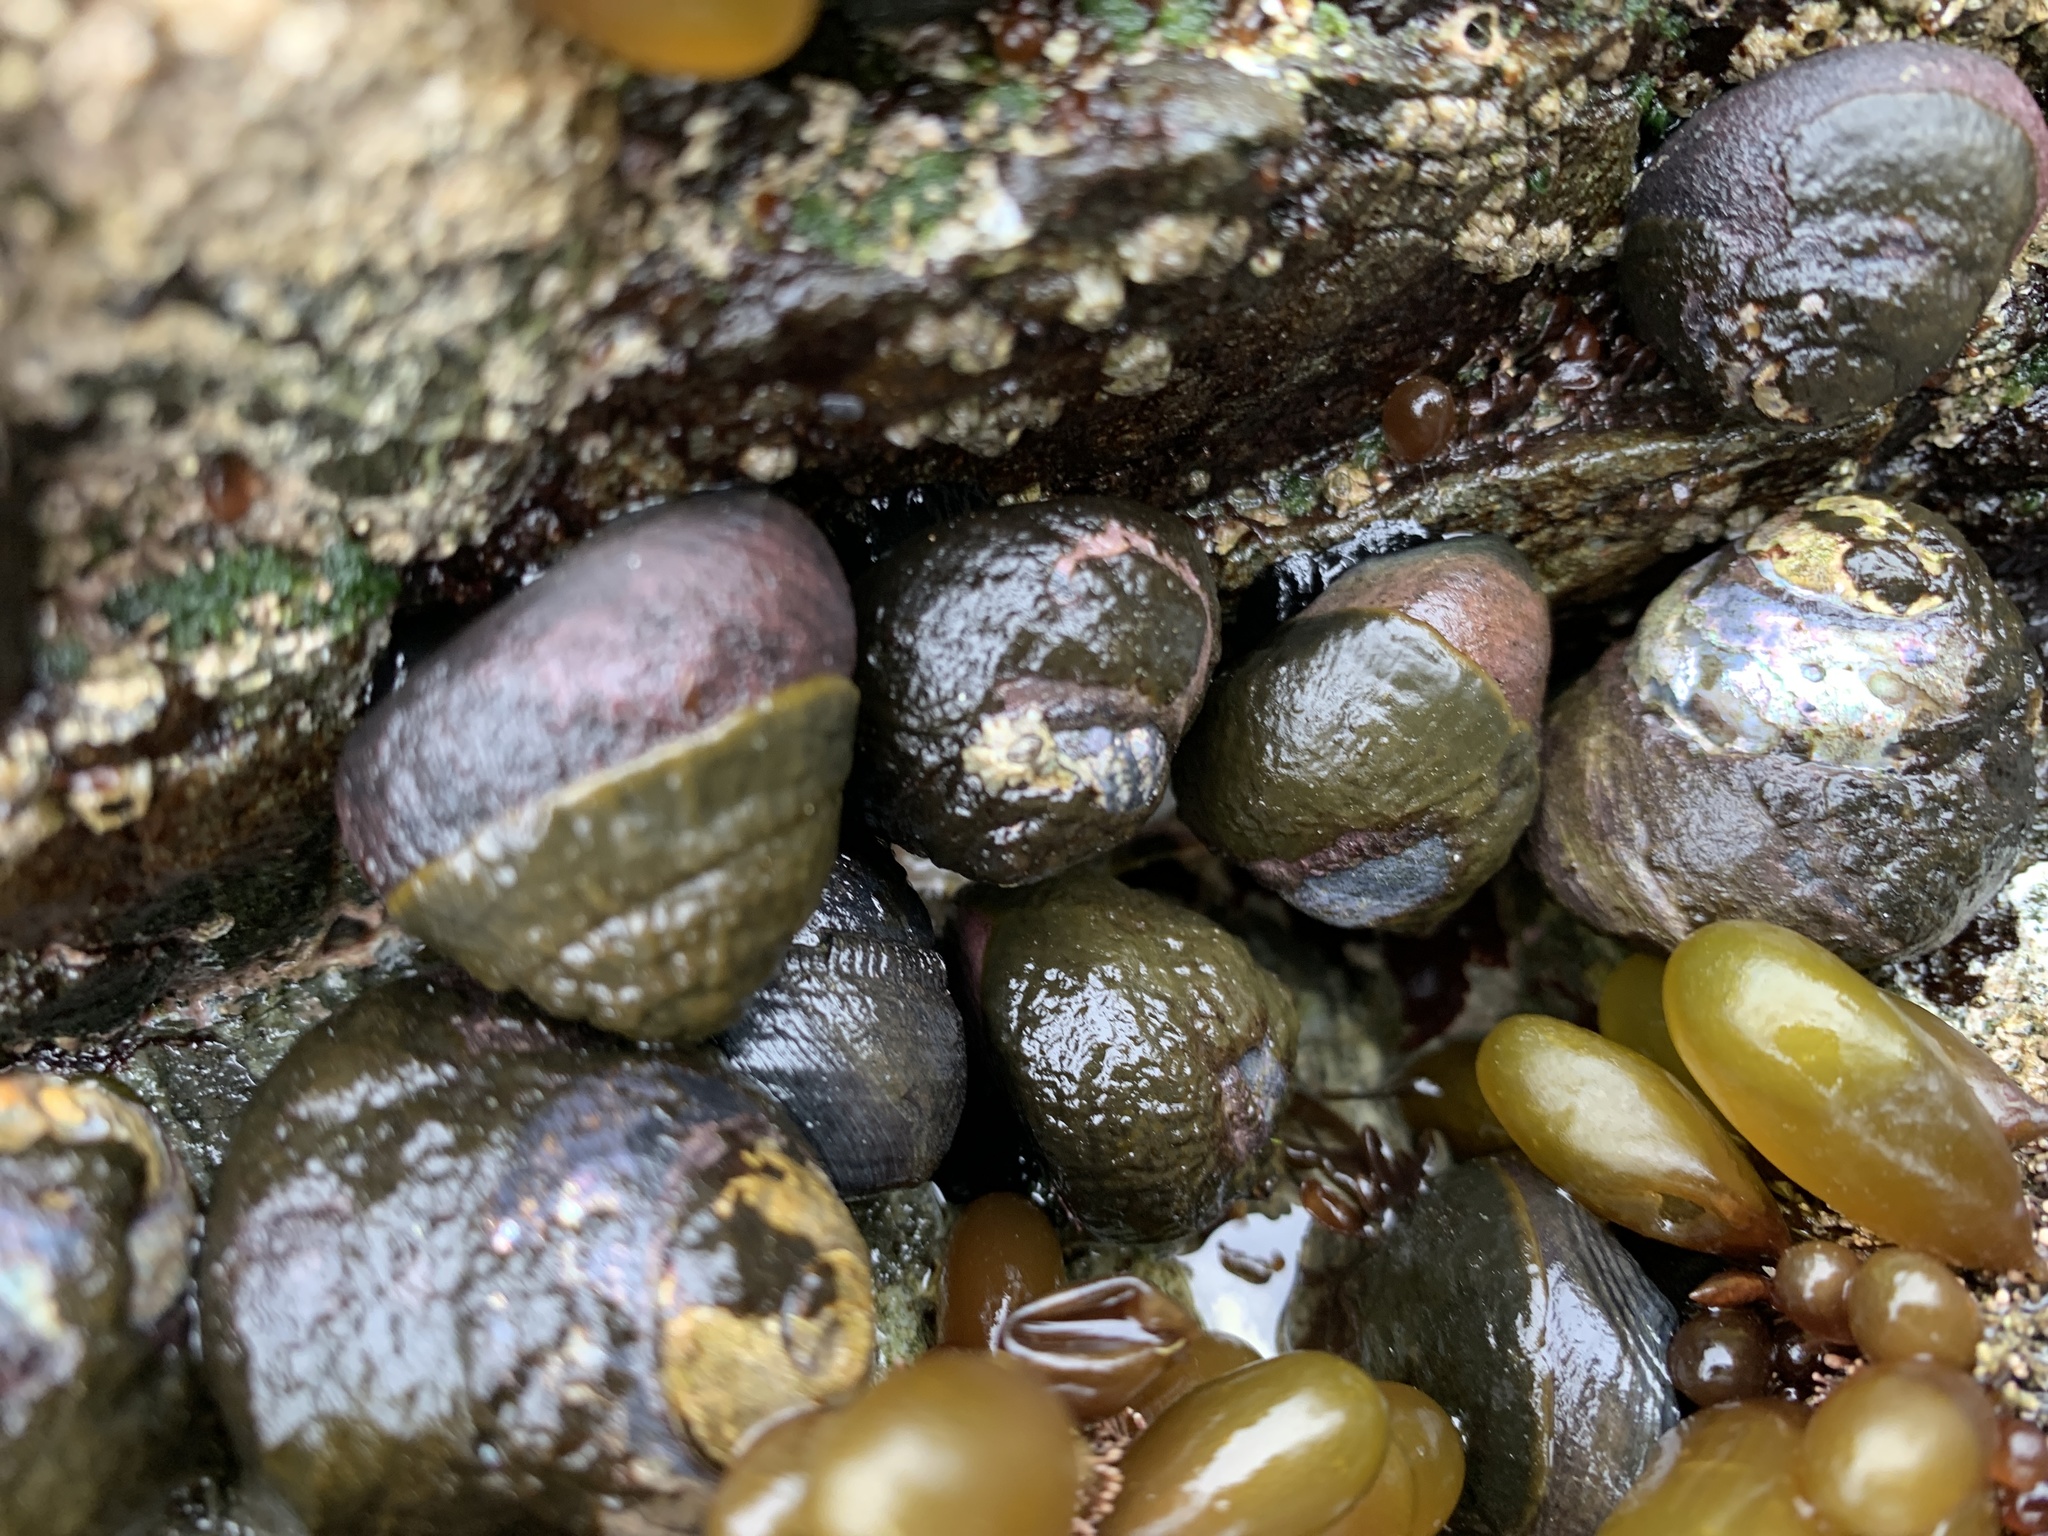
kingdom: Animalia
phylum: Mollusca
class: Gastropoda
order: Trochida
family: Tegulidae
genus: Tegula
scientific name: Tegula funebralis
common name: Black tegula
